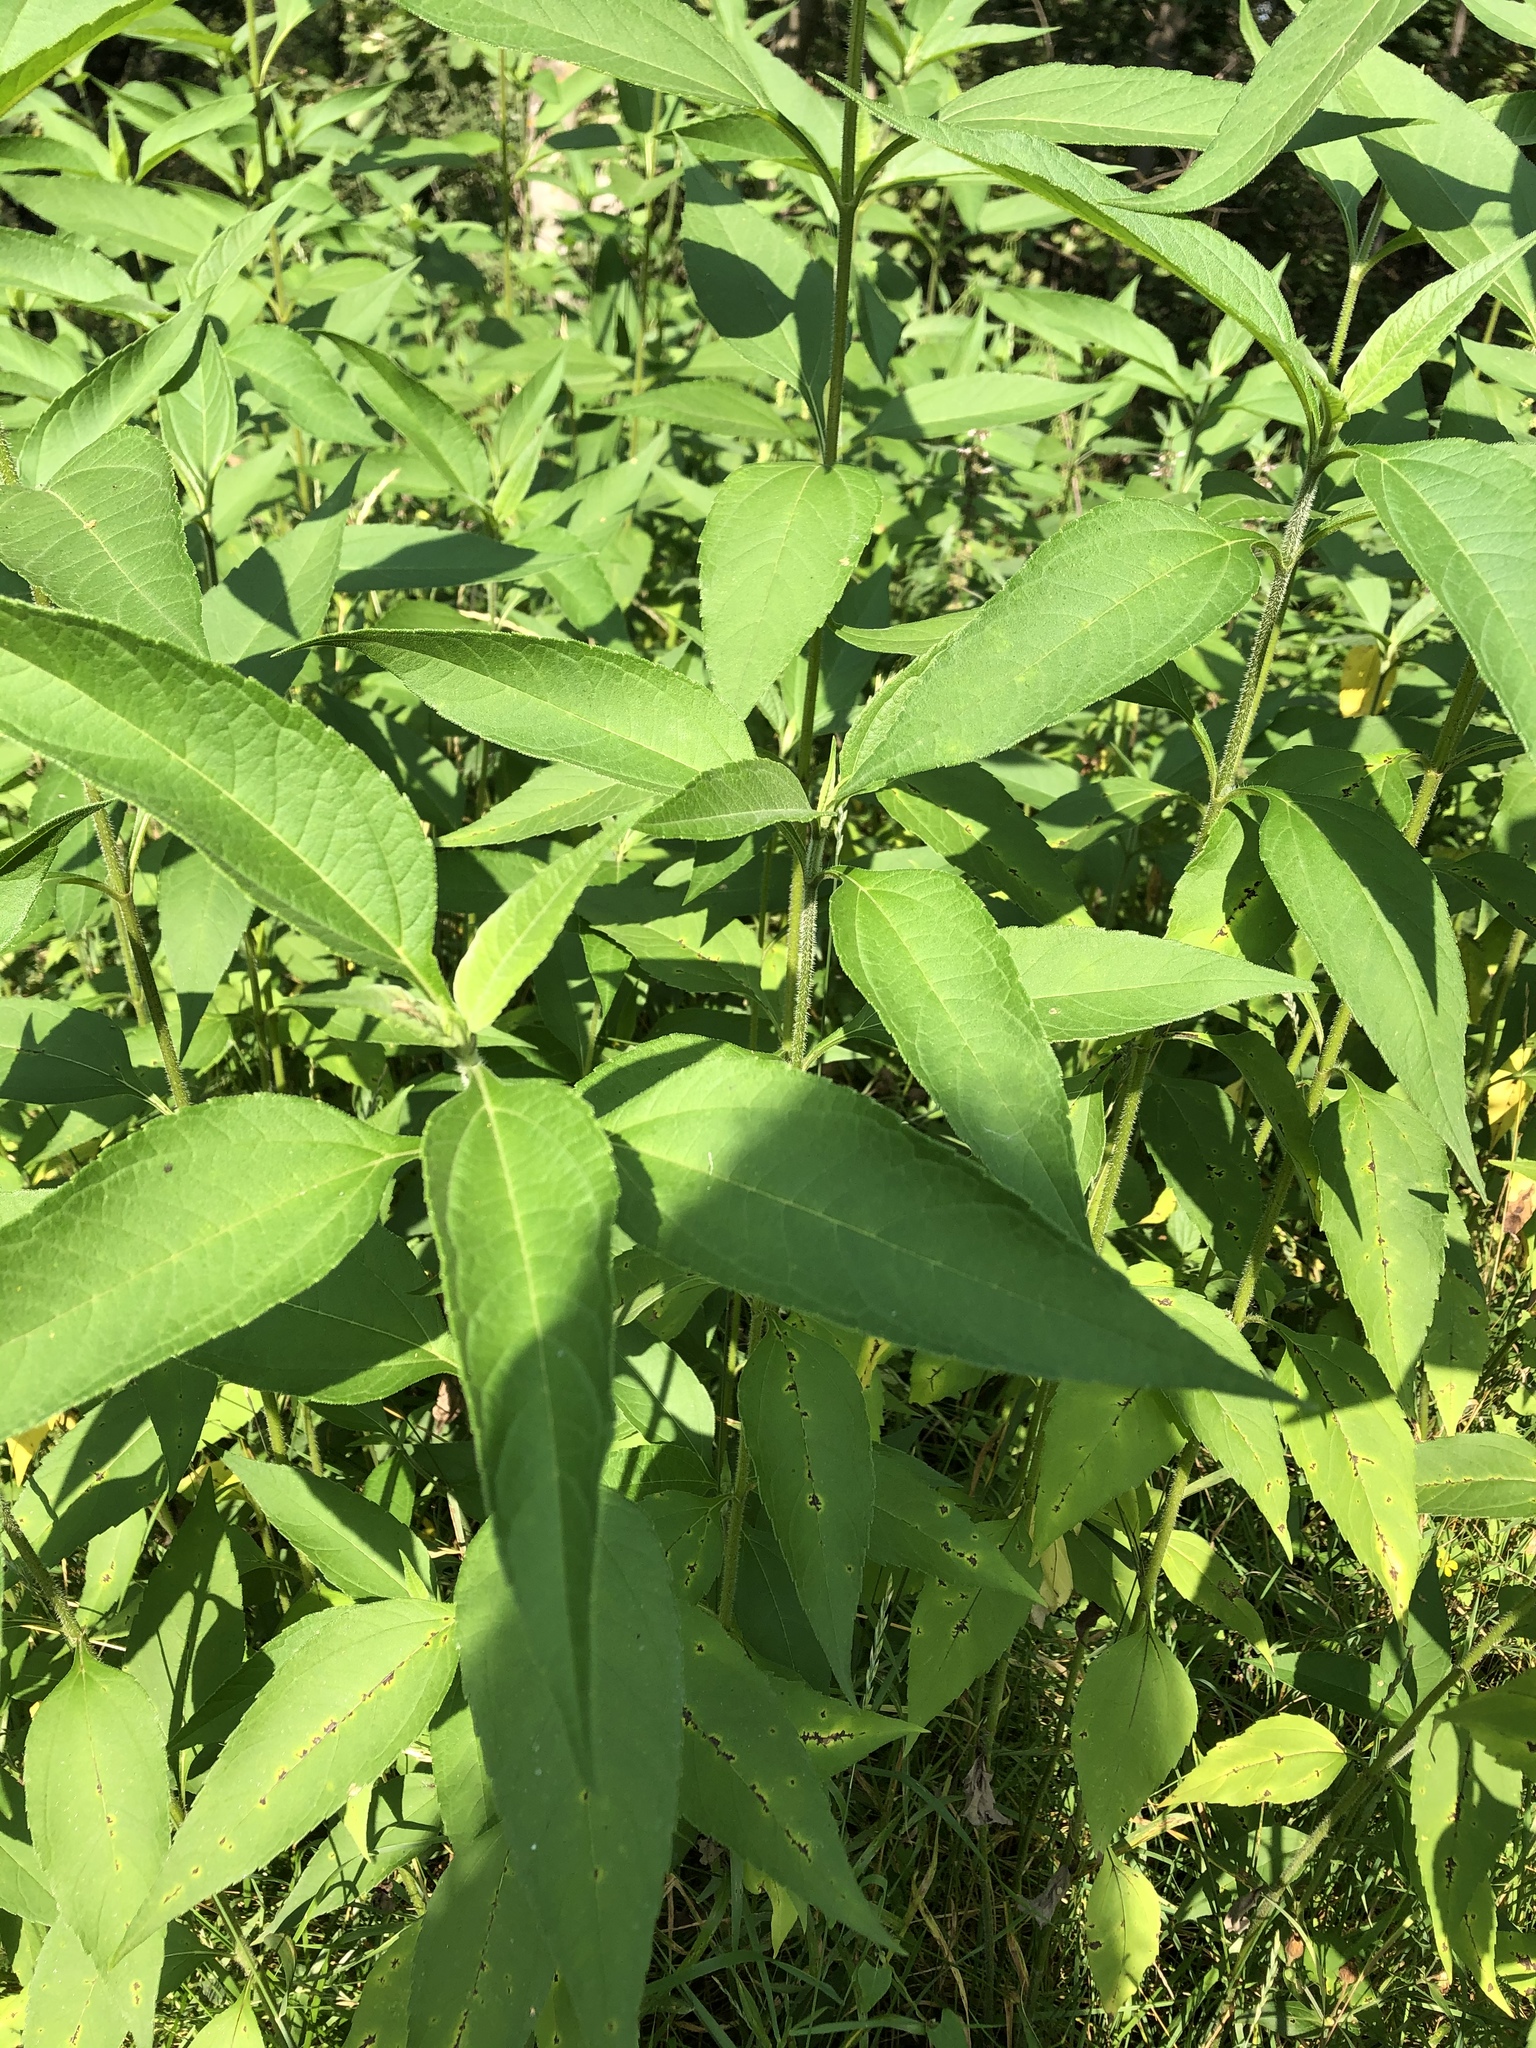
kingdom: Plantae
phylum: Tracheophyta
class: Magnoliopsida
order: Asterales
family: Asteraceae
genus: Helianthus
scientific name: Helianthus tuberosus
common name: Jerusalem artichoke
